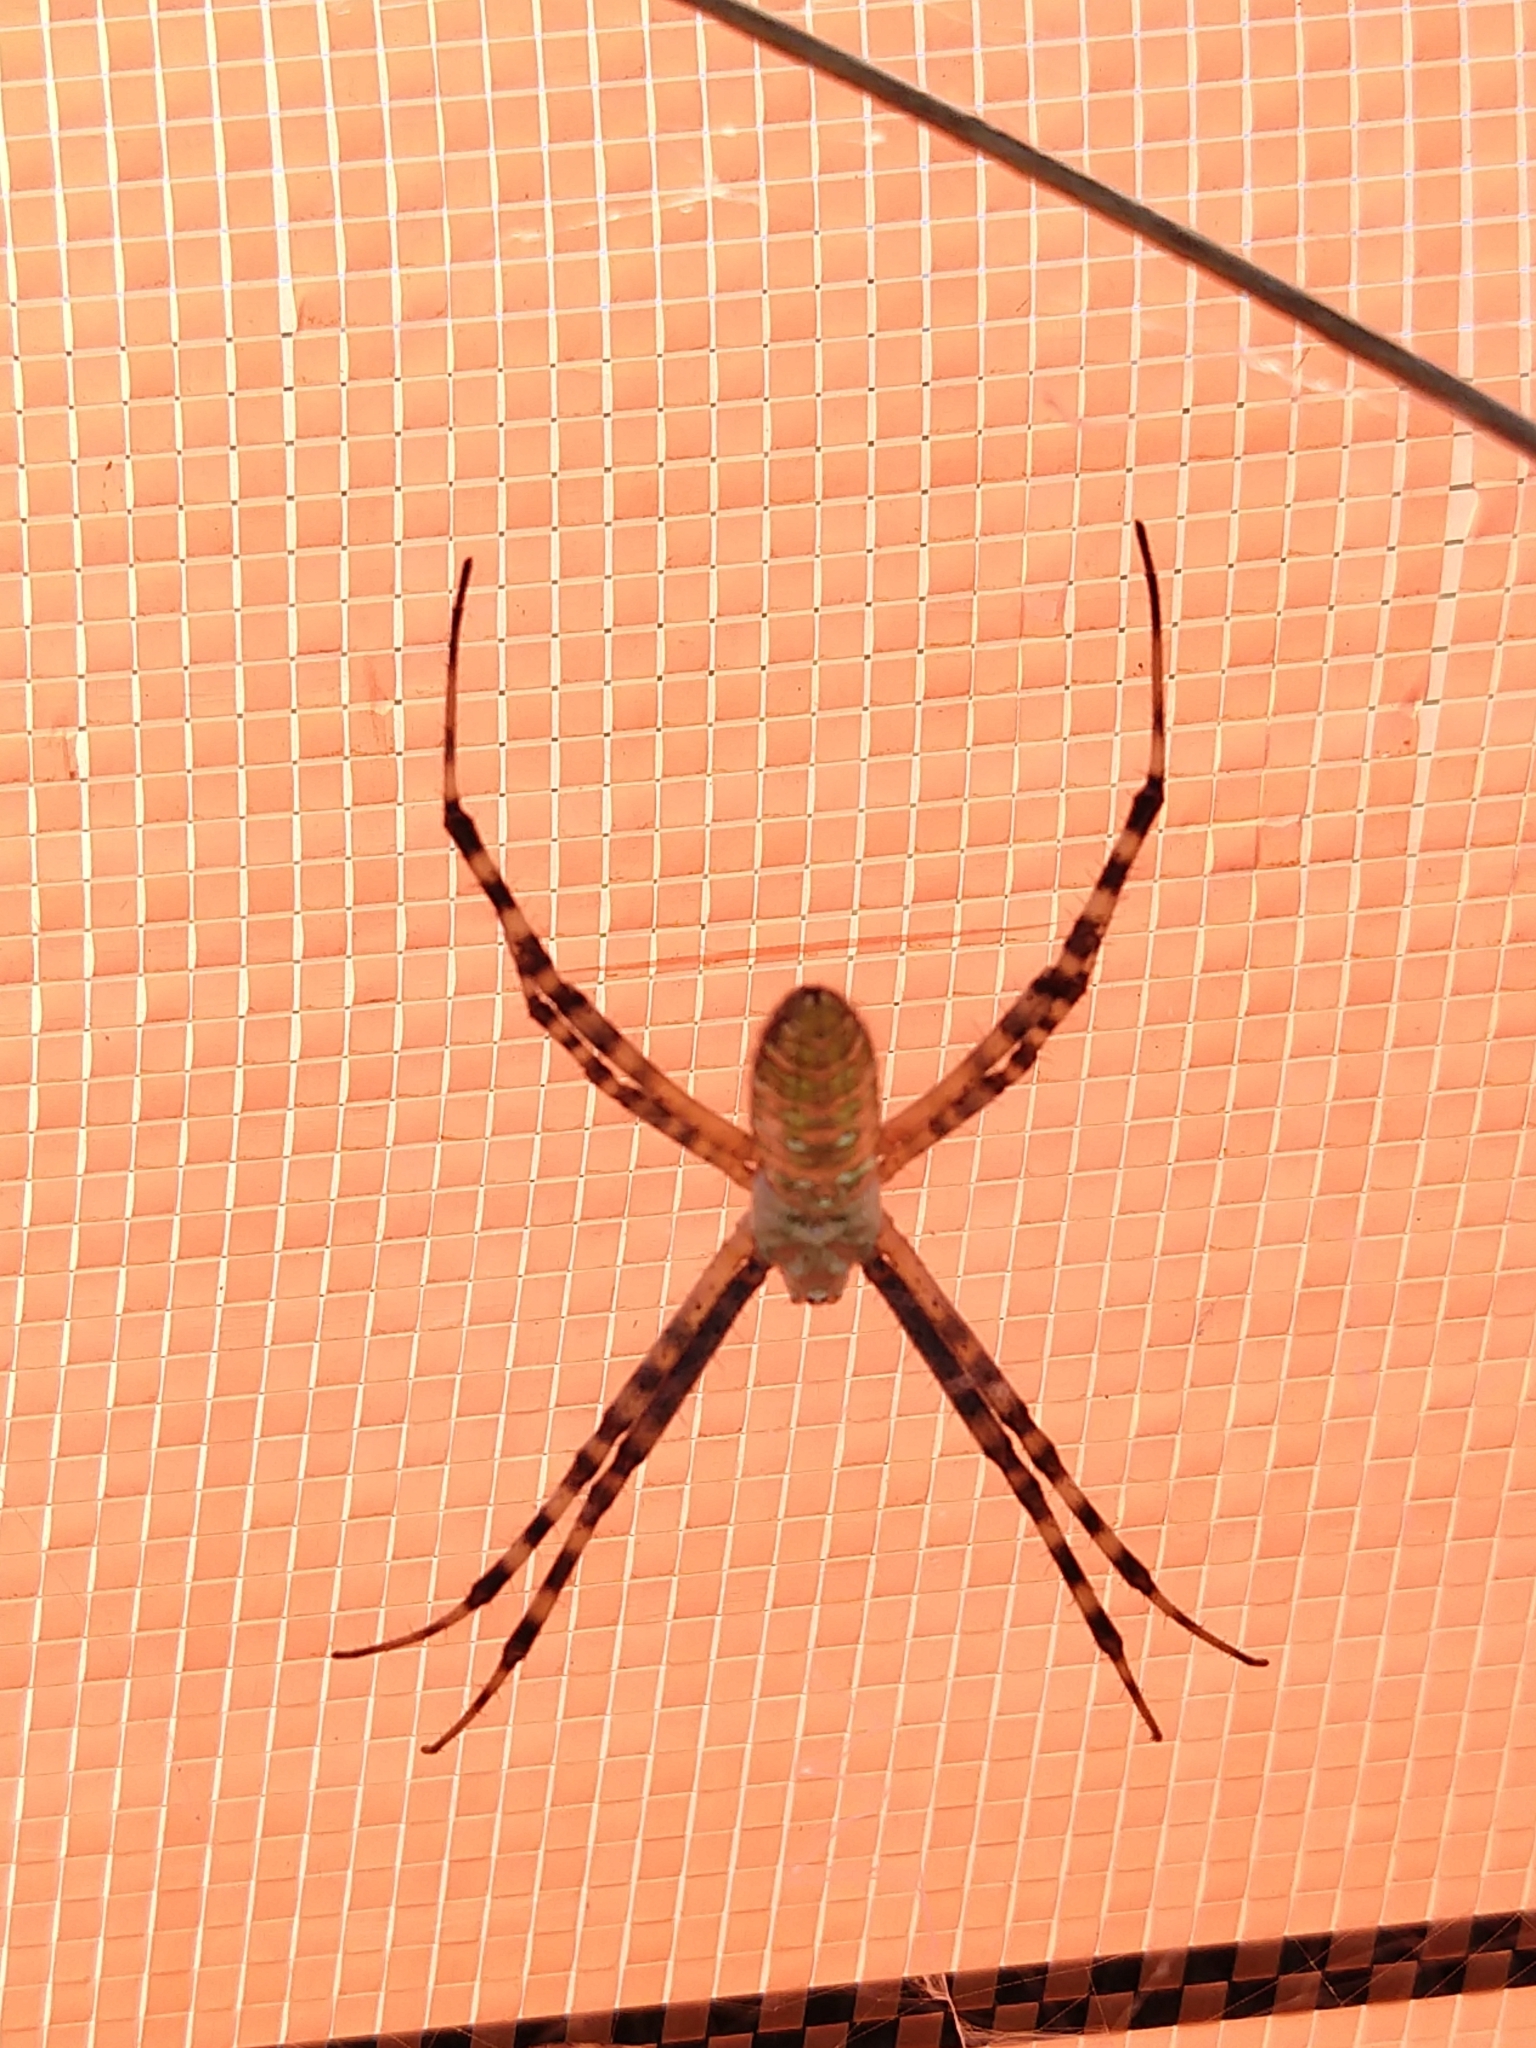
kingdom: Animalia
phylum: Arthropoda
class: Arachnida
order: Araneae
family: Araneidae
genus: Argiope
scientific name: Argiope trifasciata
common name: Banded garden spider
